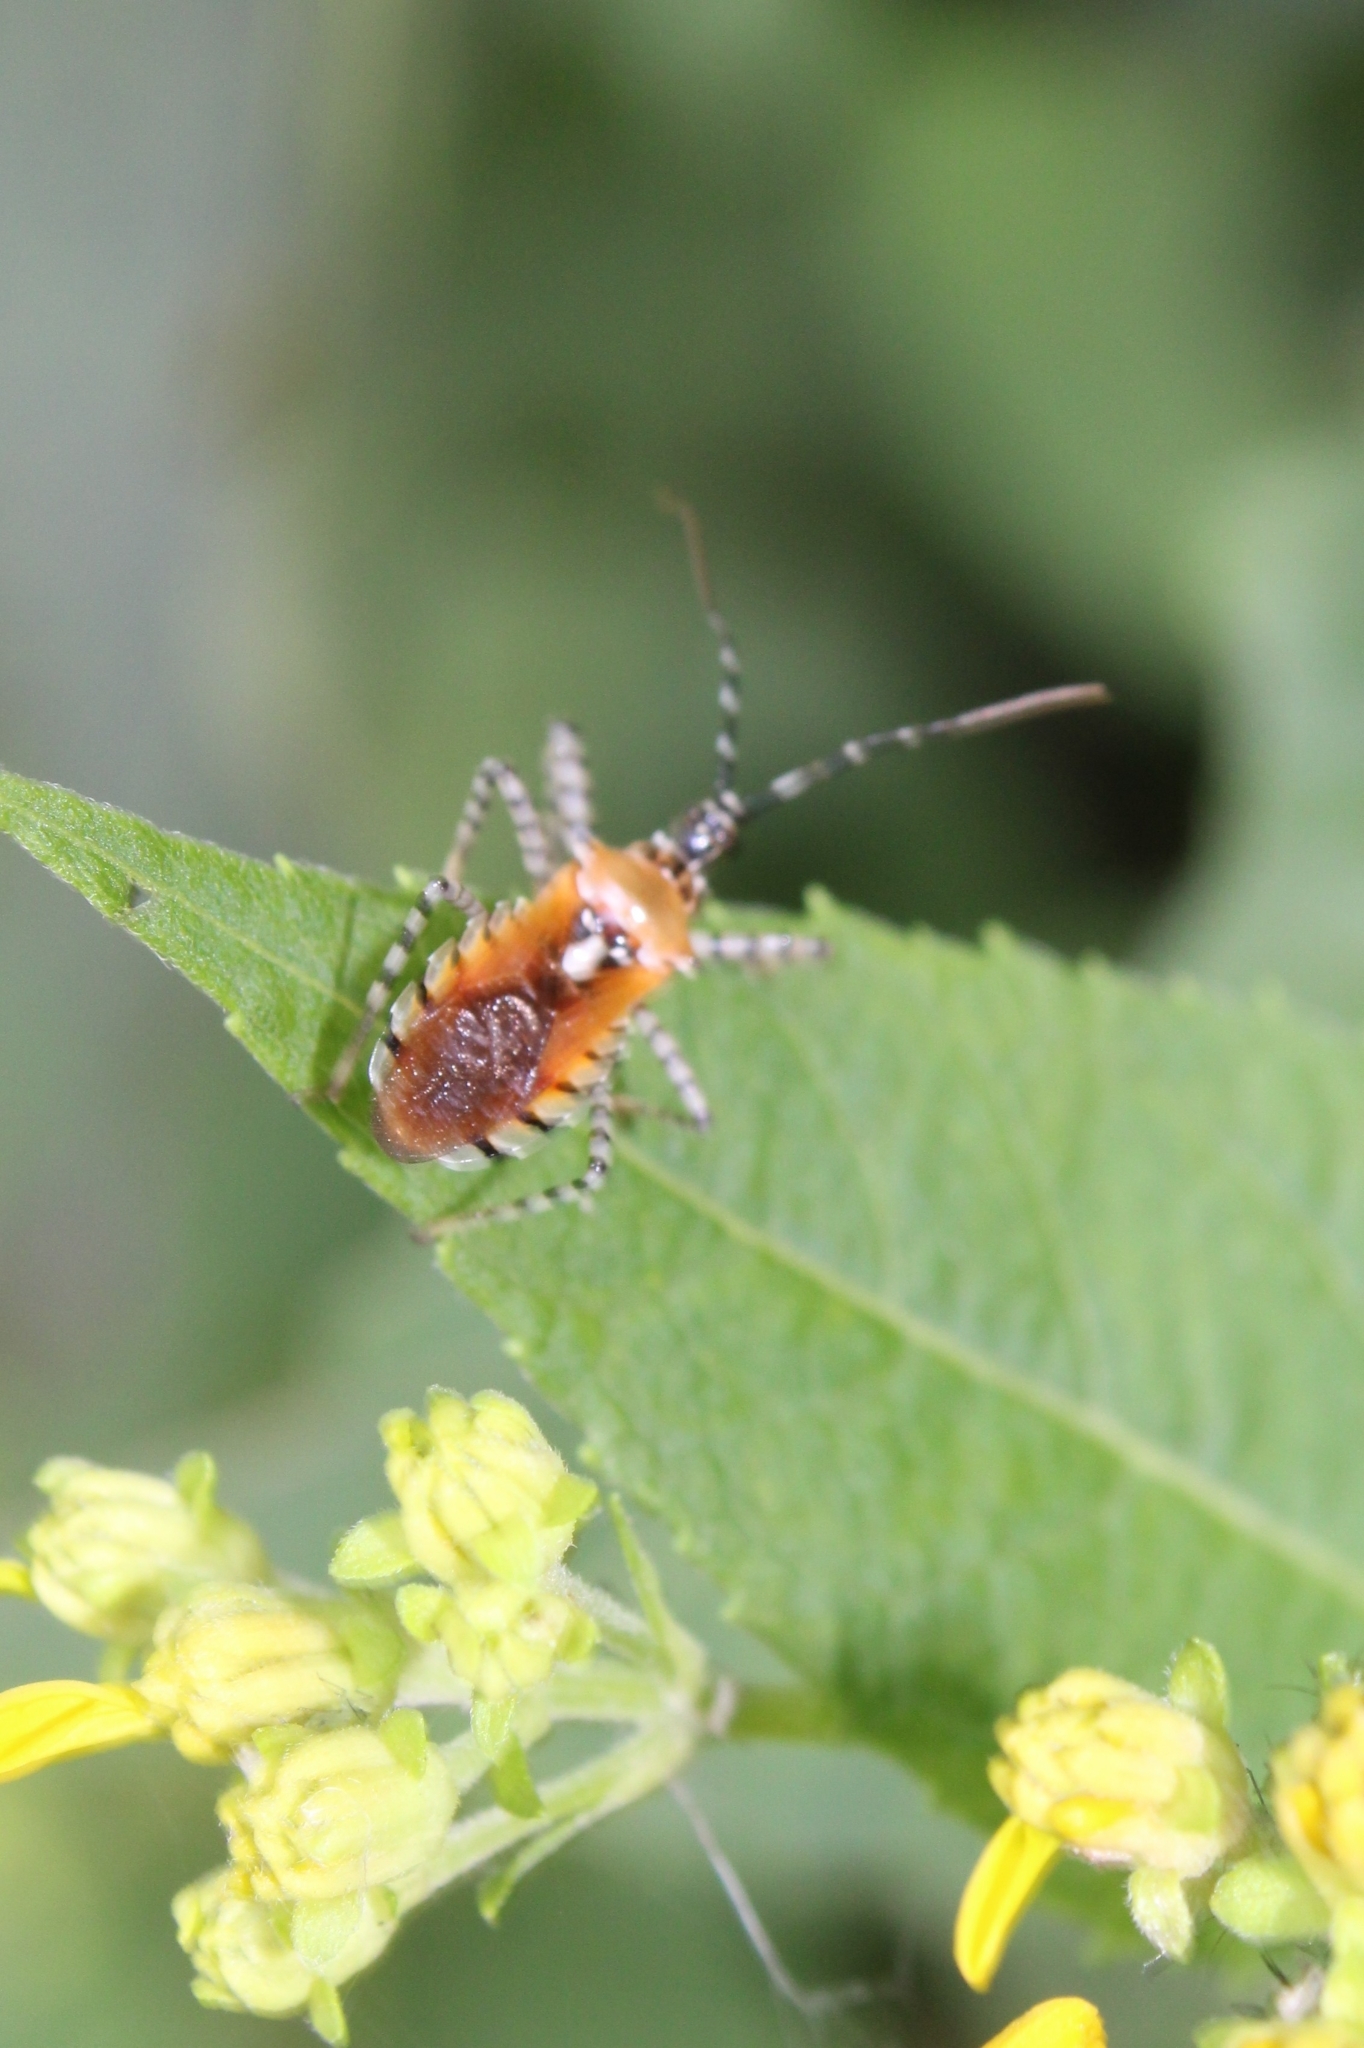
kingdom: Animalia
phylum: Arthropoda
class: Insecta
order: Hemiptera
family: Reduviidae
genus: Pselliopus
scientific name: Pselliopus cinctus
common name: Ringed assassin bug
